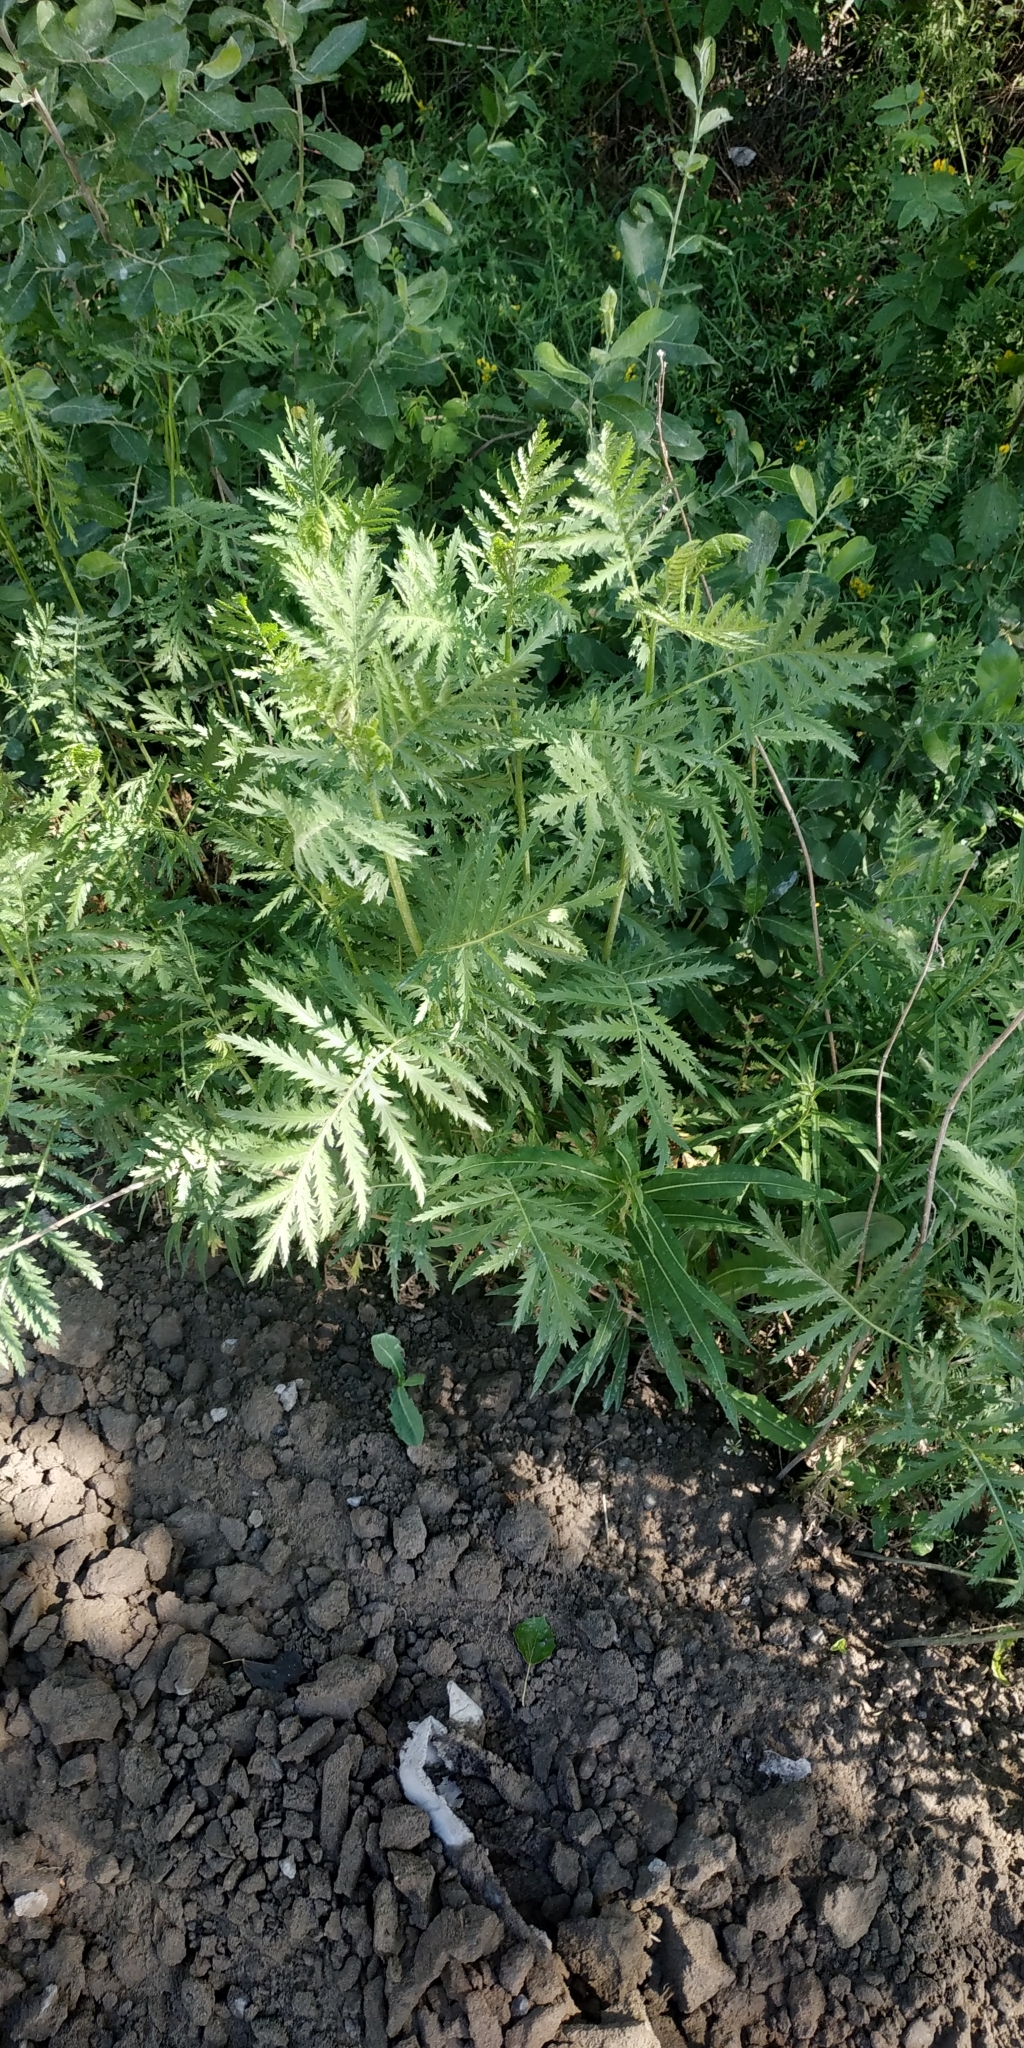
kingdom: Plantae
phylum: Tracheophyta
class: Magnoliopsida
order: Asterales
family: Asteraceae
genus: Tanacetum
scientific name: Tanacetum vulgare
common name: Common tansy
